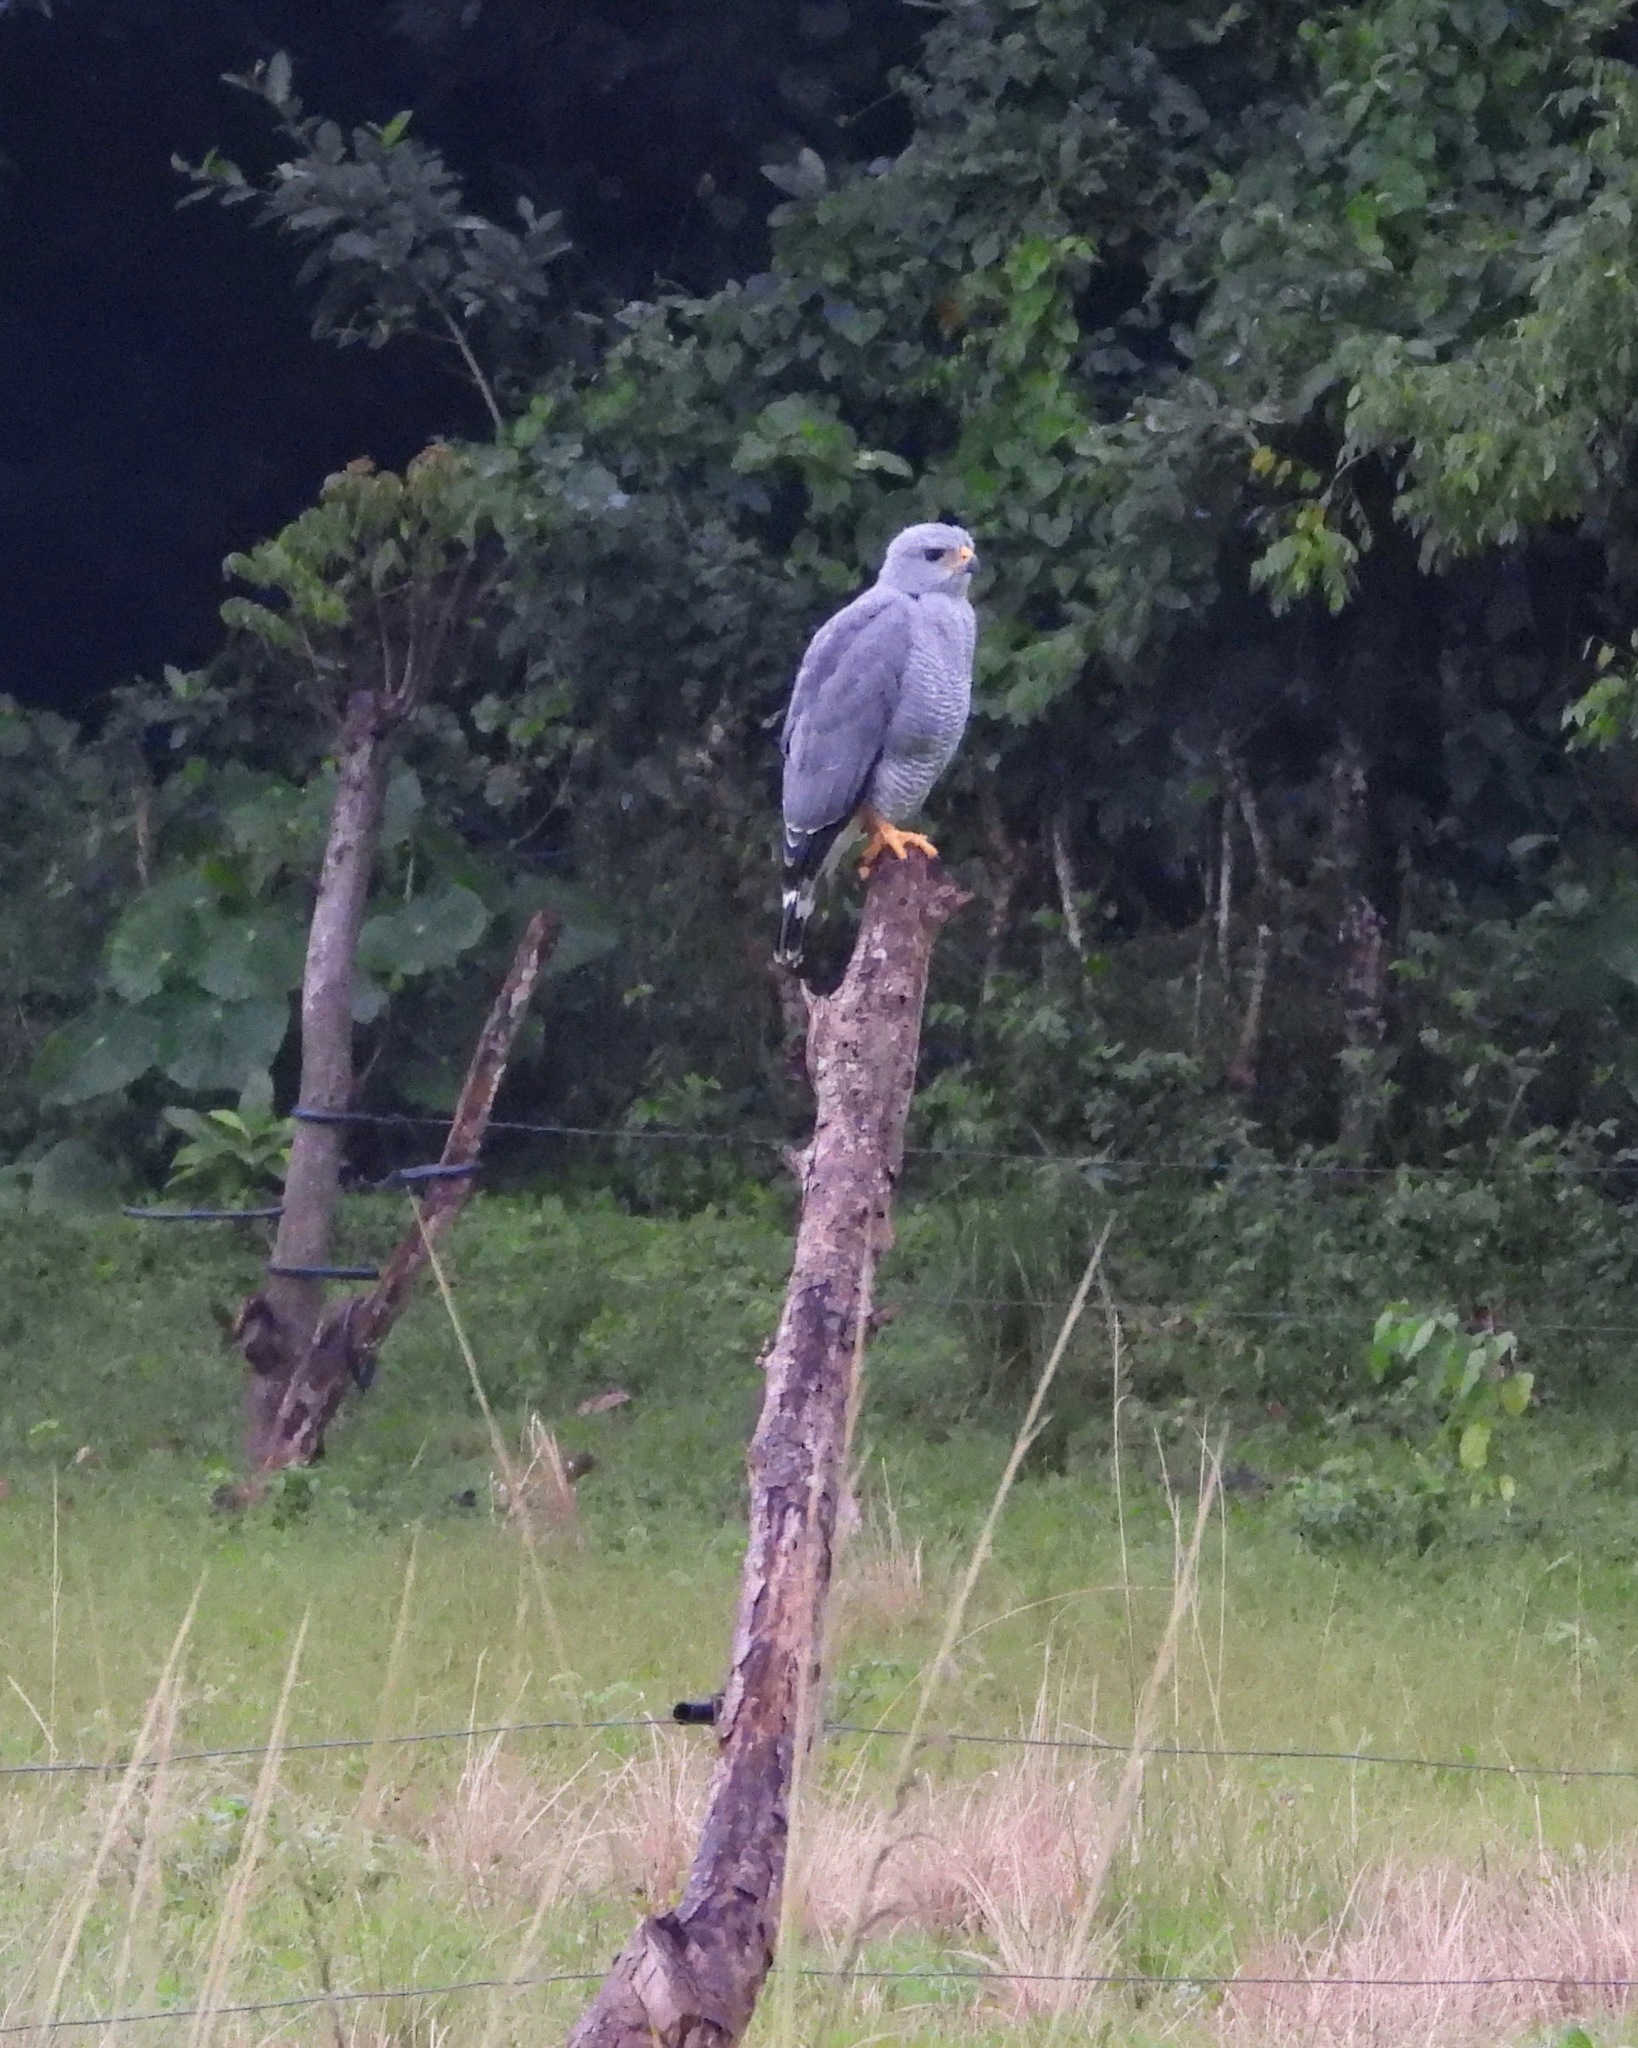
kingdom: Animalia
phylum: Chordata
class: Aves
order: Accipitriformes
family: Accipitridae
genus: Buteo
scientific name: Buteo nitidus
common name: Grey-lined hawk
